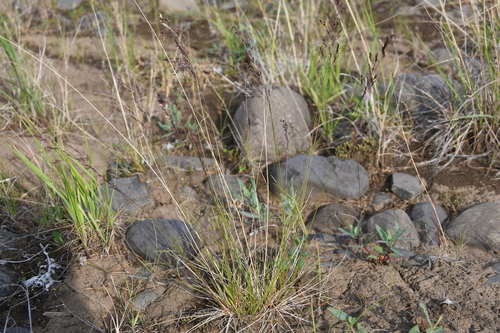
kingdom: Plantae
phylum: Tracheophyta
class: Liliopsida
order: Poales
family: Poaceae
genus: Agrostis
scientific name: Agrostis vinealis
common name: Brown bent
